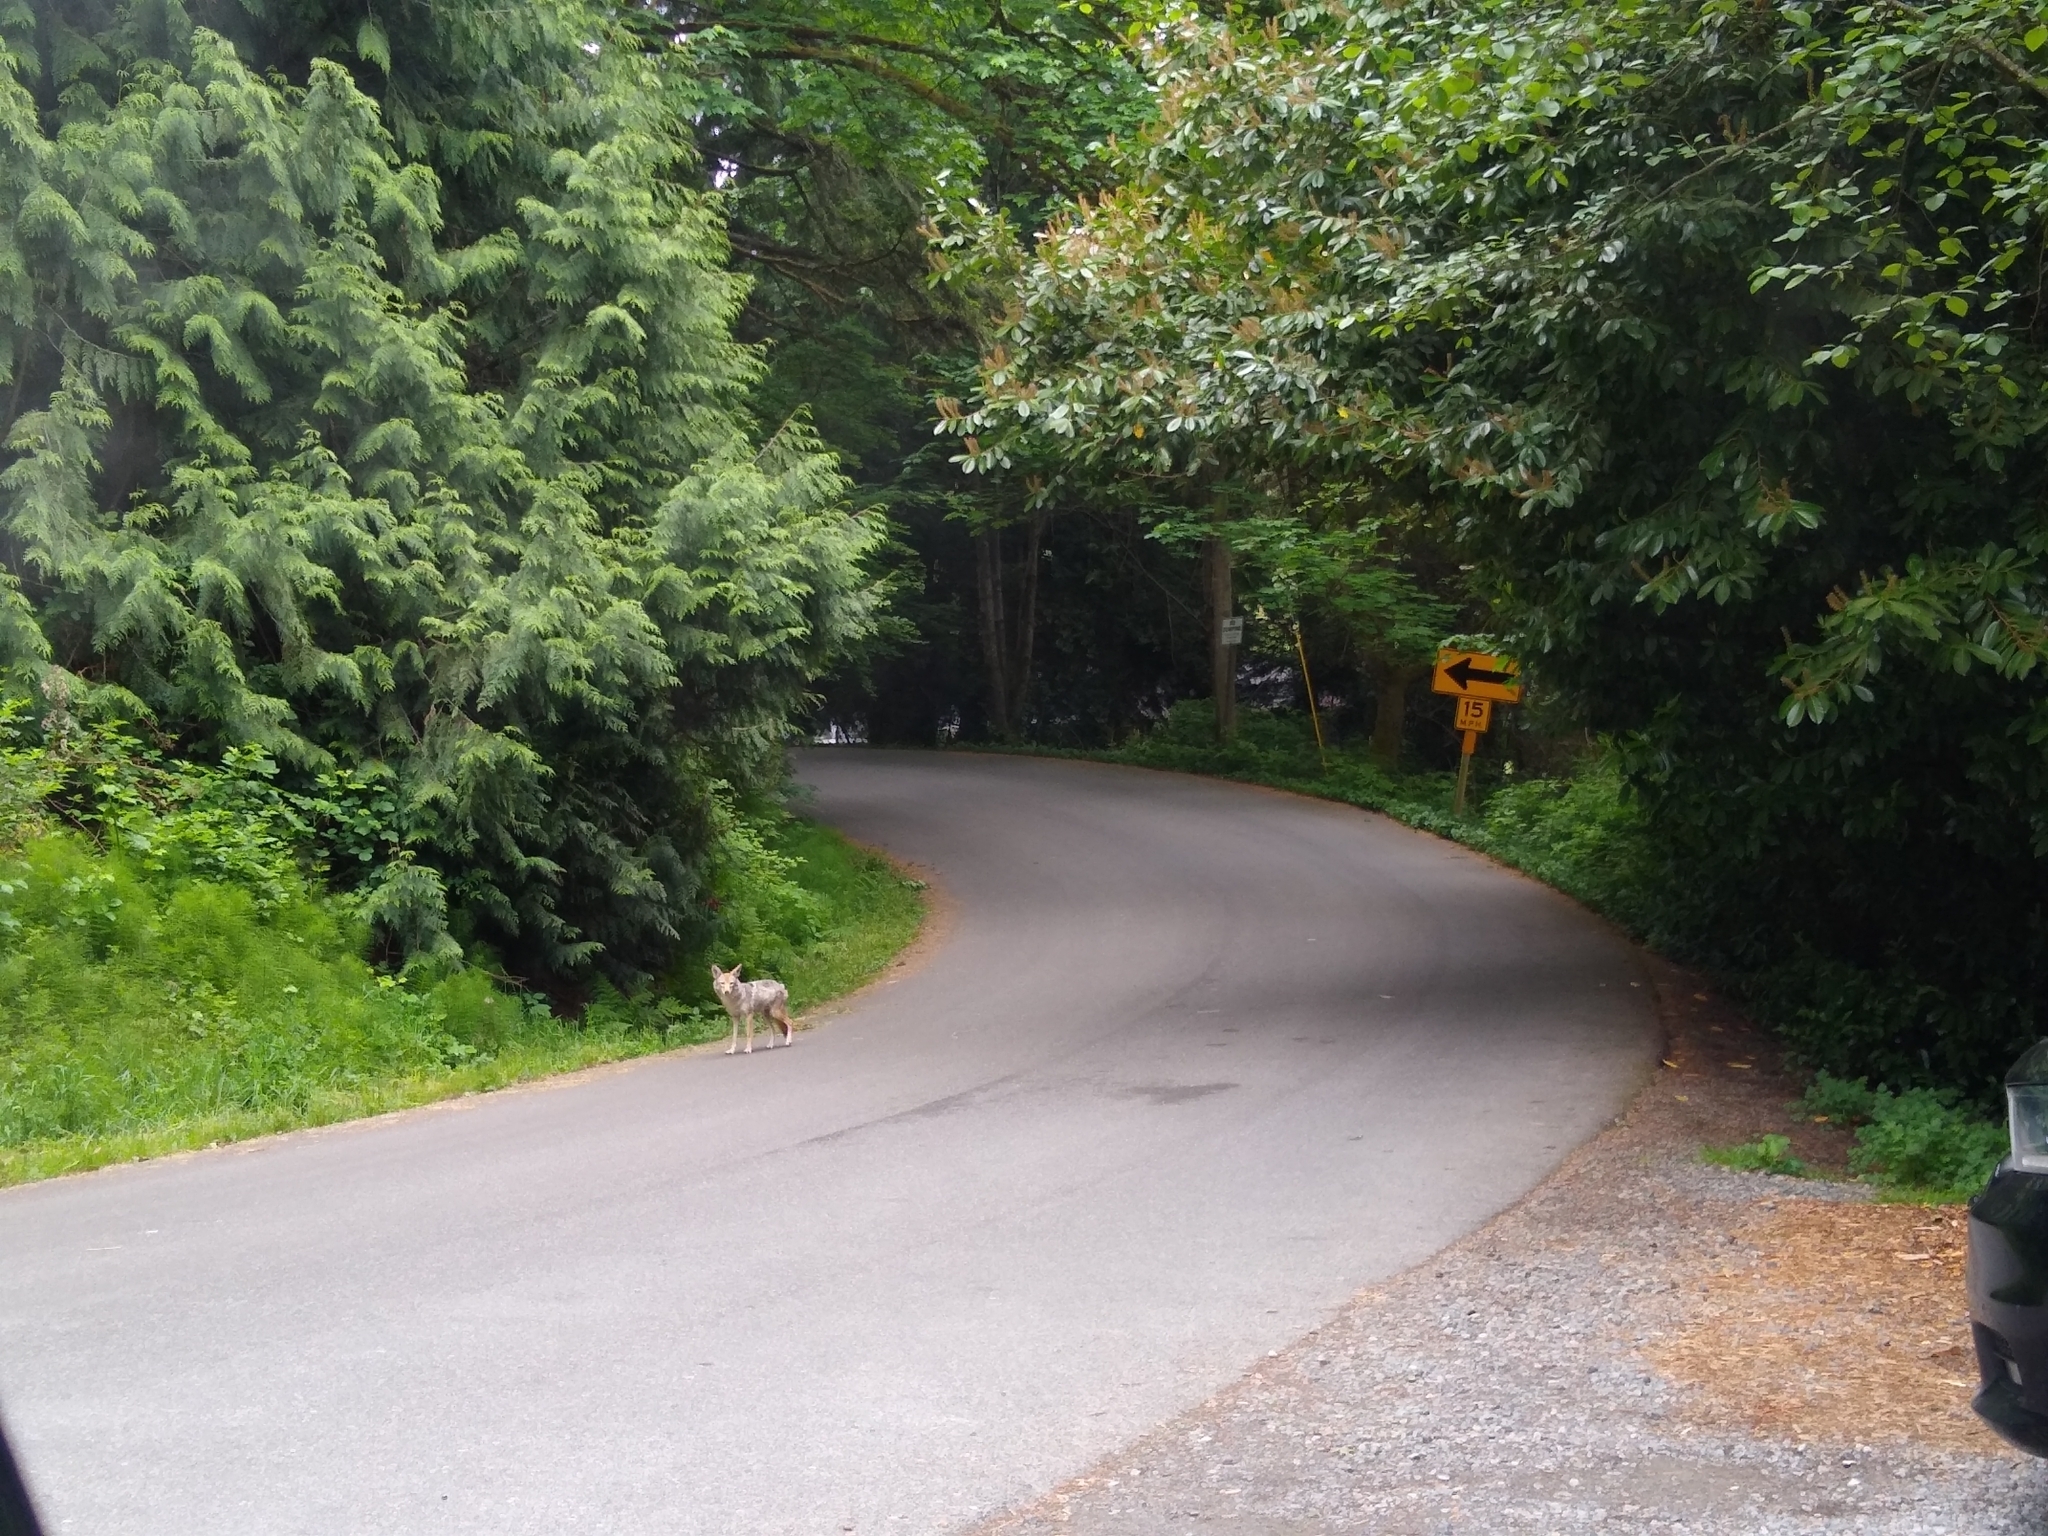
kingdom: Animalia
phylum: Chordata
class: Mammalia
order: Carnivora
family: Canidae
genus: Canis
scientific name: Canis latrans
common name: Coyote
